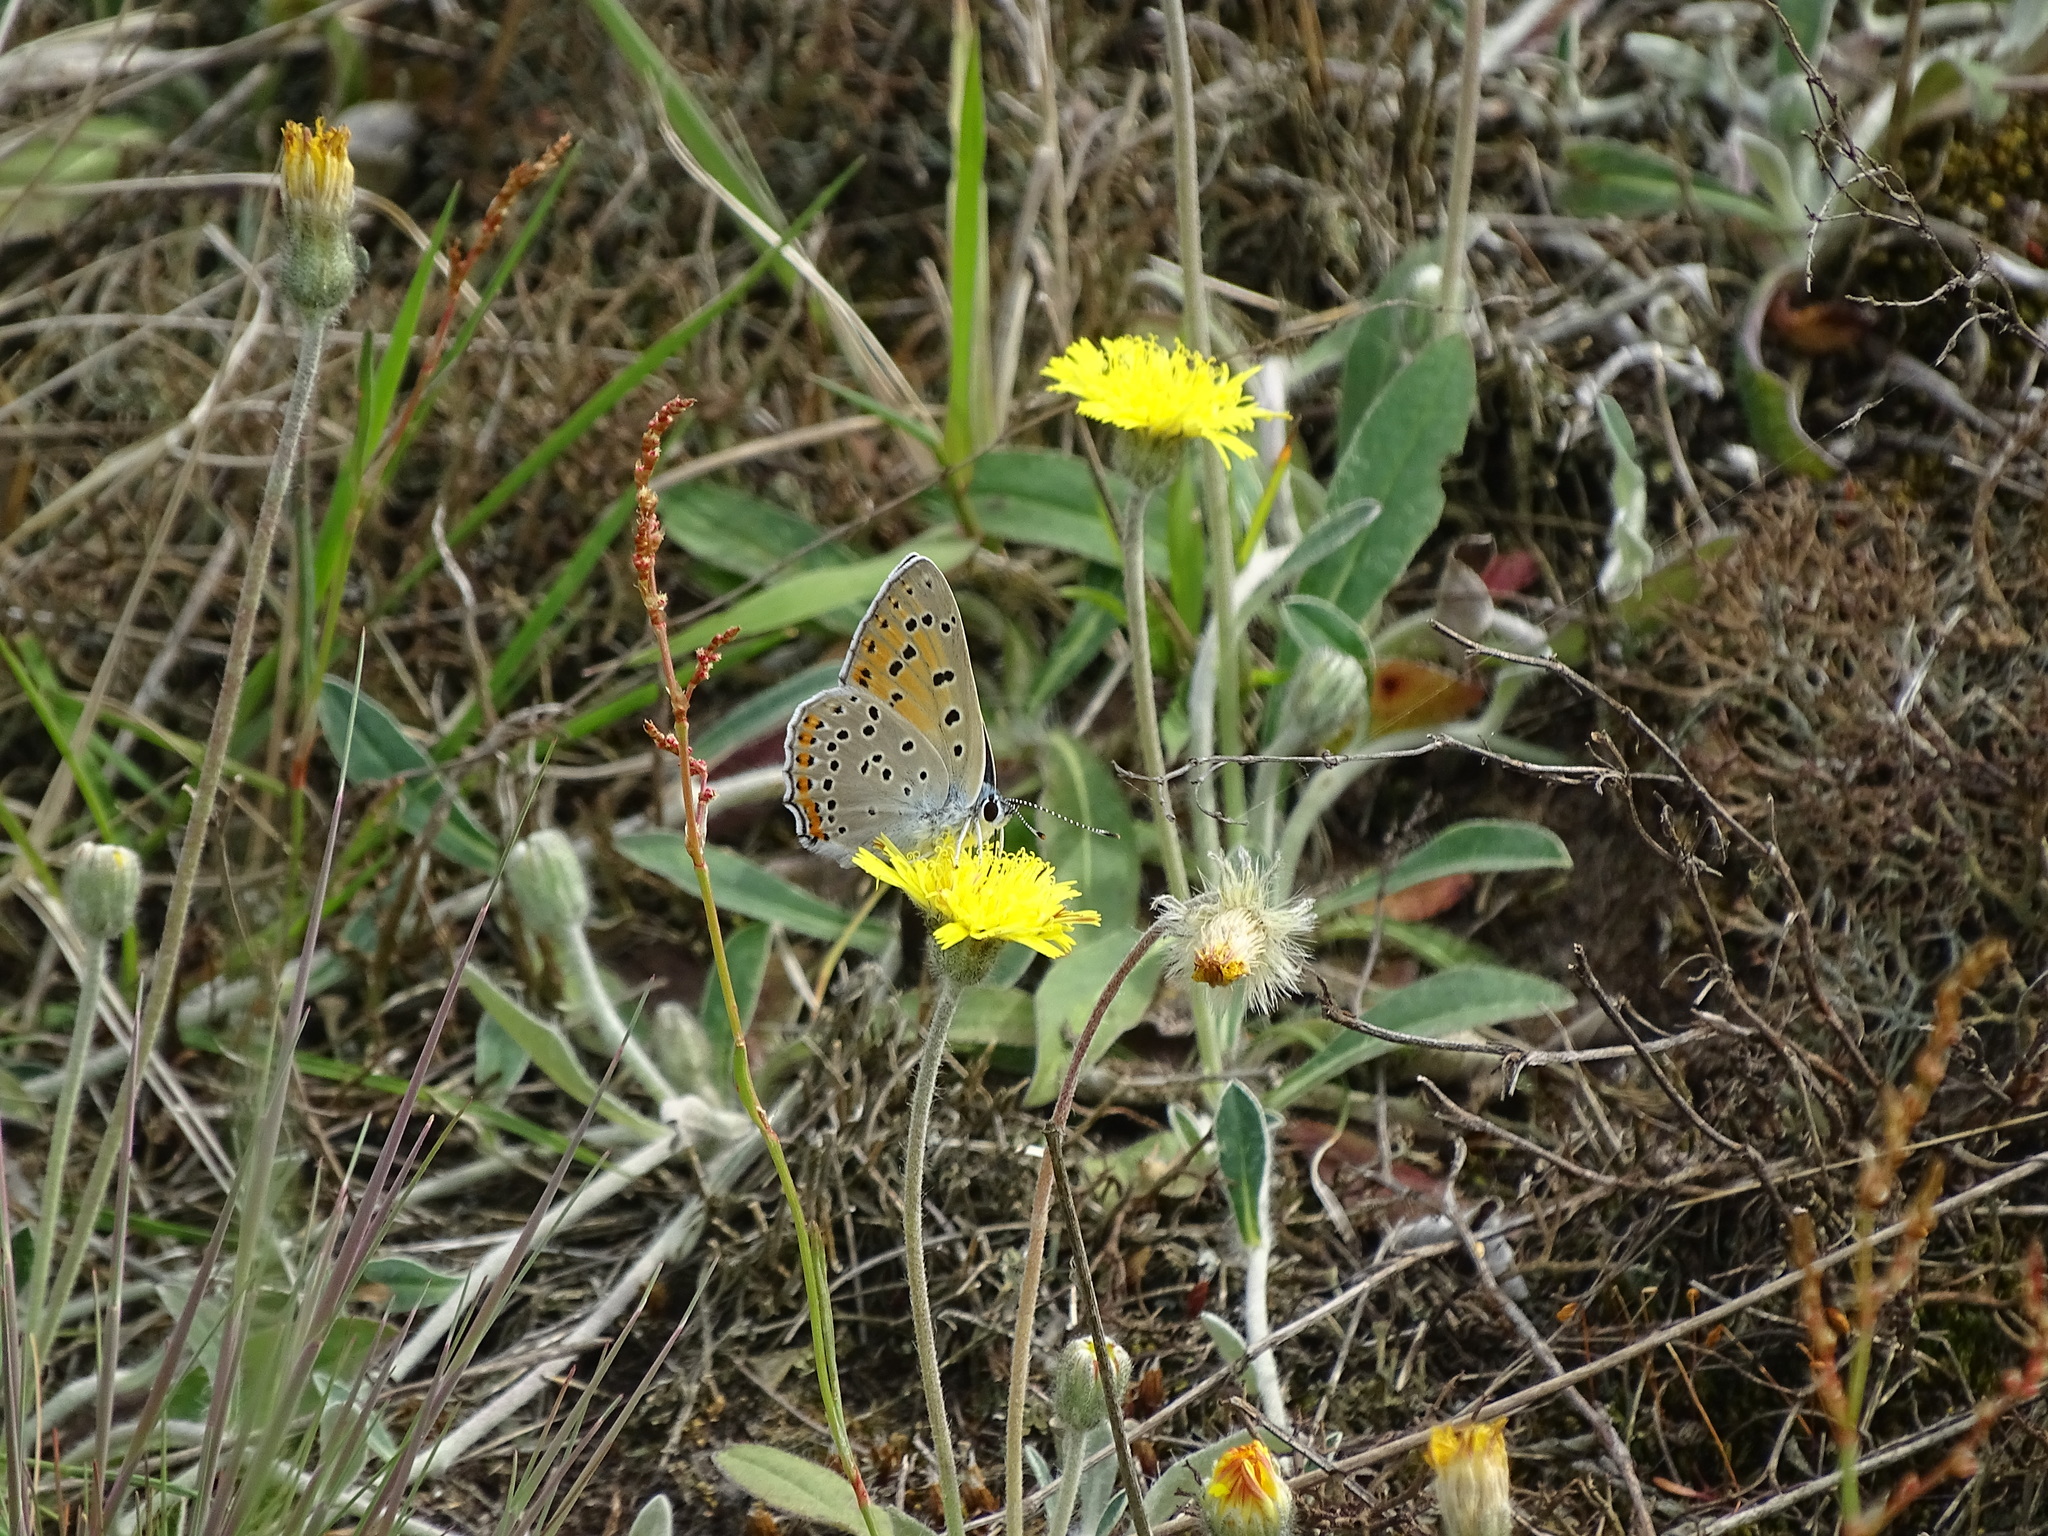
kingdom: Animalia
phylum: Arthropoda
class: Insecta
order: Lepidoptera
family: Lycaenidae
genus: Lycaena
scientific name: Lycaena alciphron
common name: Purple-shot copper
